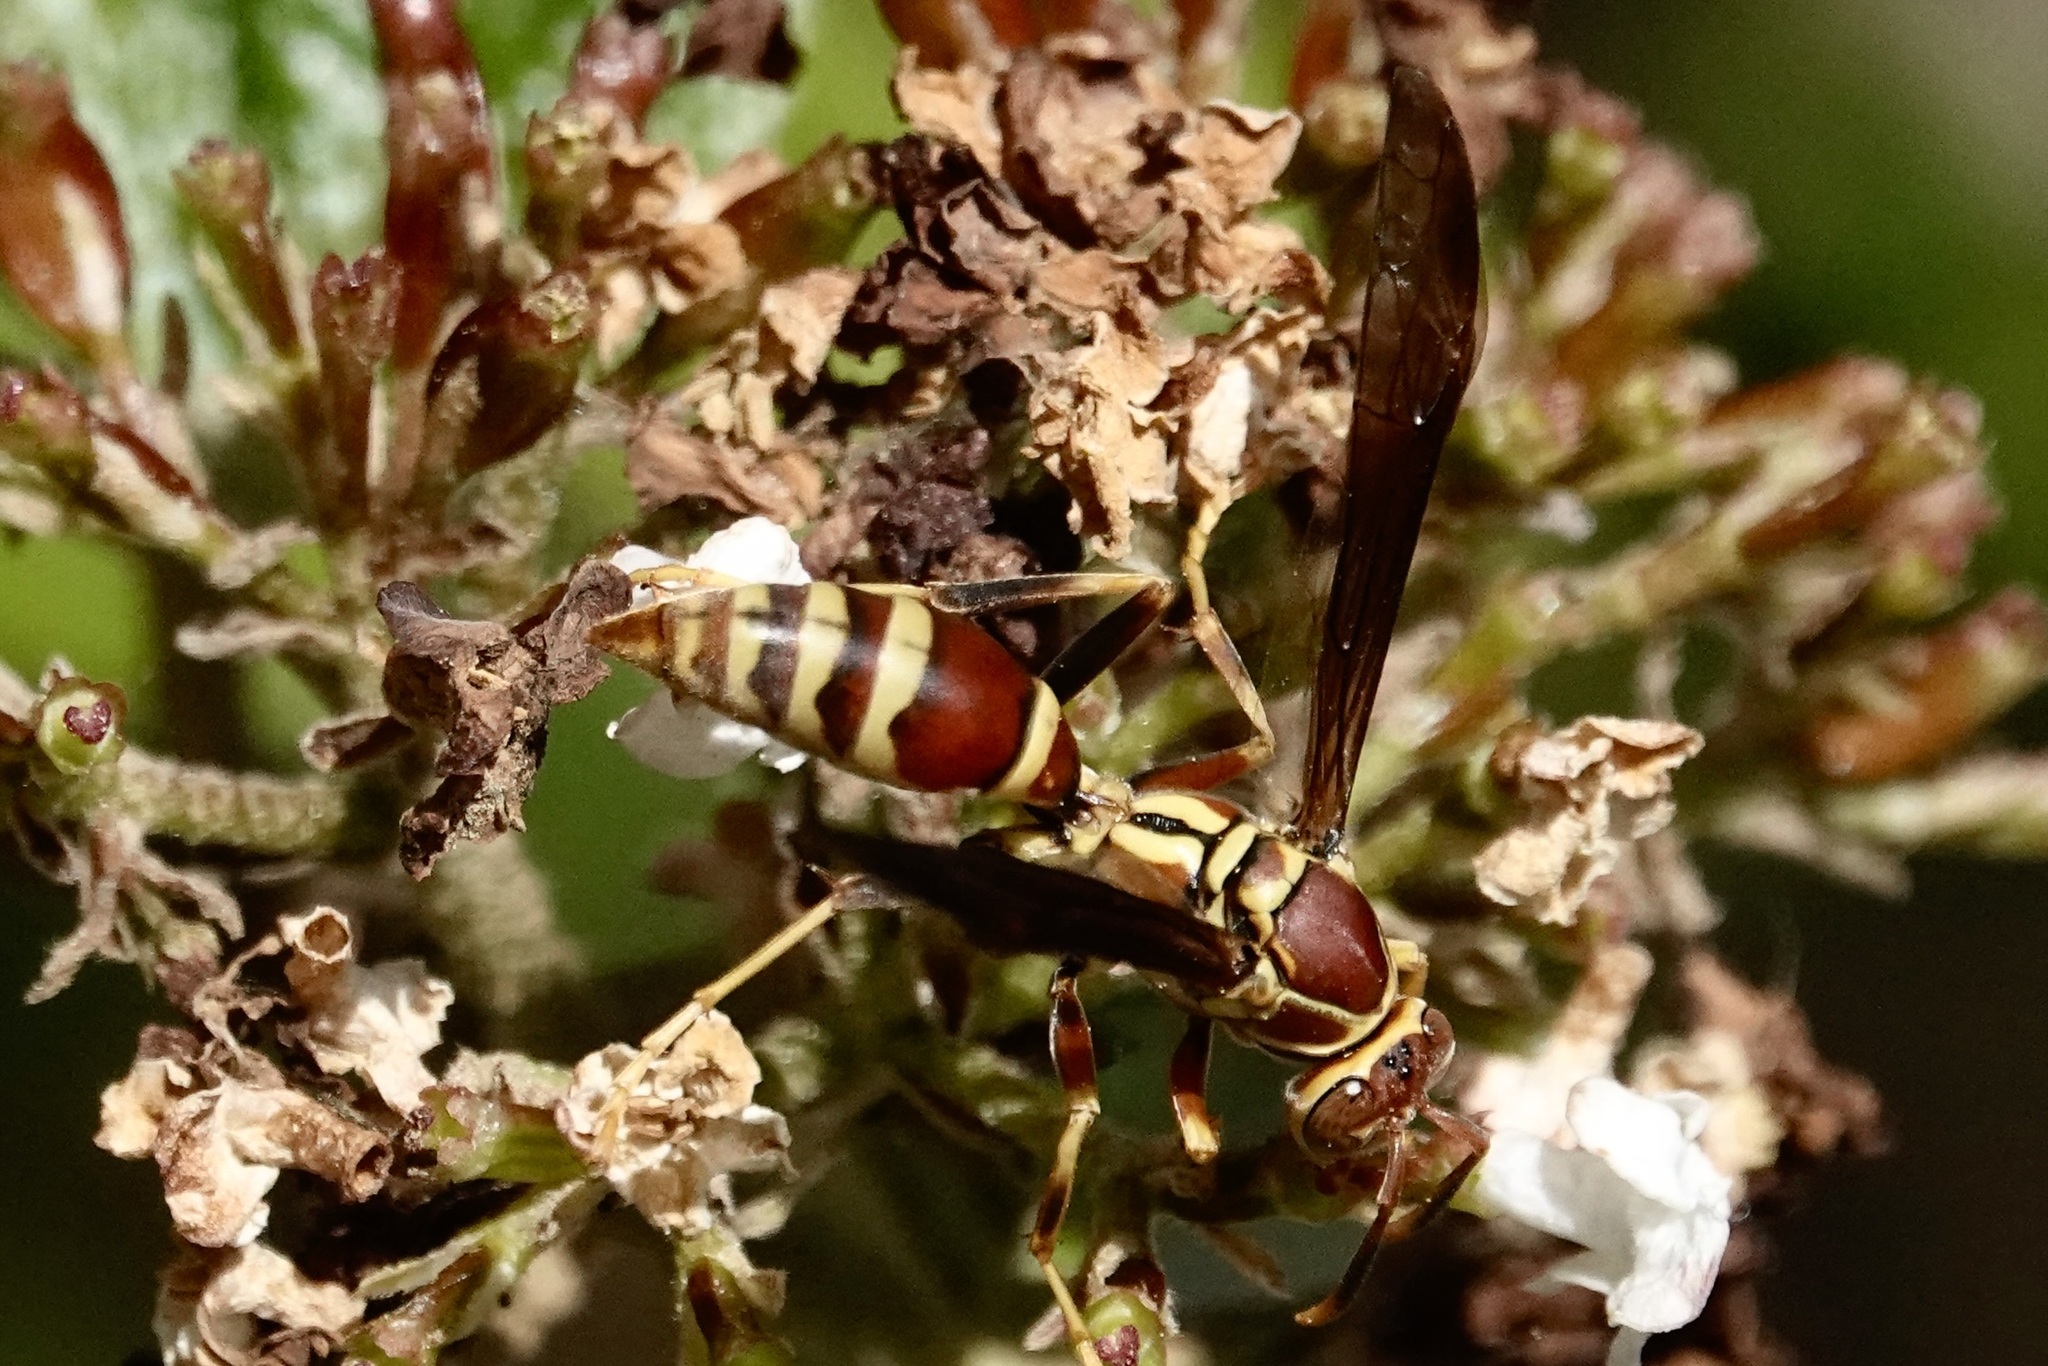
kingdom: Animalia
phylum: Arthropoda
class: Insecta
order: Hymenoptera
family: Eumenidae
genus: Polistes
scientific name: Polistes exclamans
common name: Paper wasp
